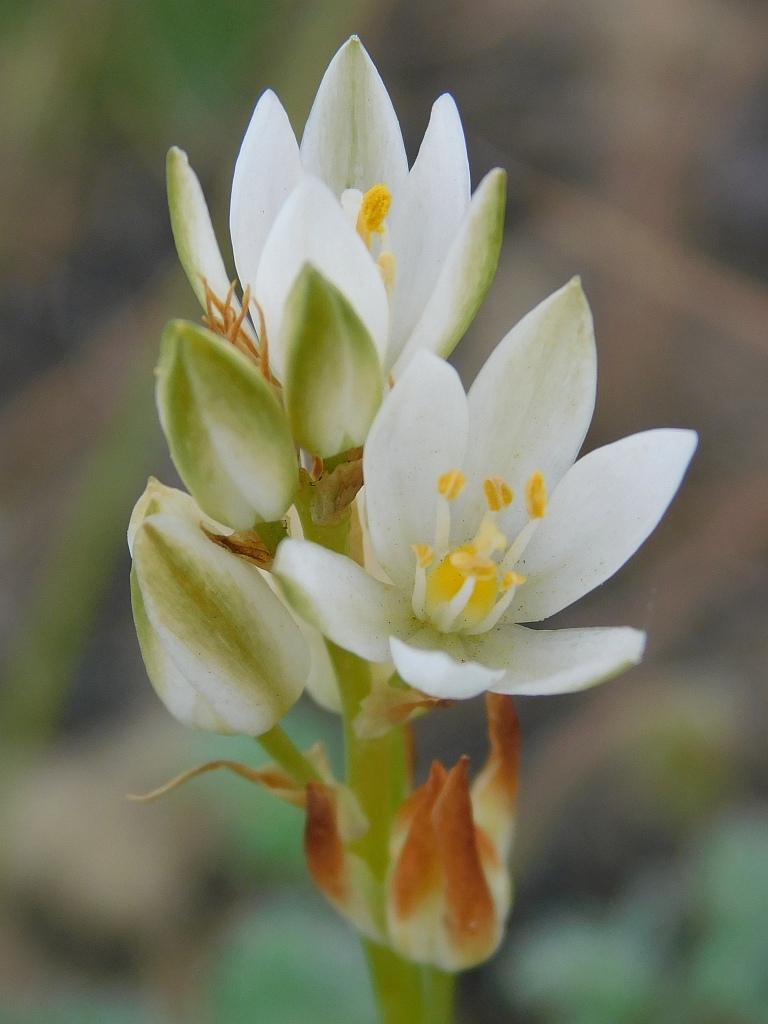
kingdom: Plantae
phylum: Tracheophyta
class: Liliopsida
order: Asparagales
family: Asparagaceae
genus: Ornithogalum
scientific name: Ornithogalum hispidum
